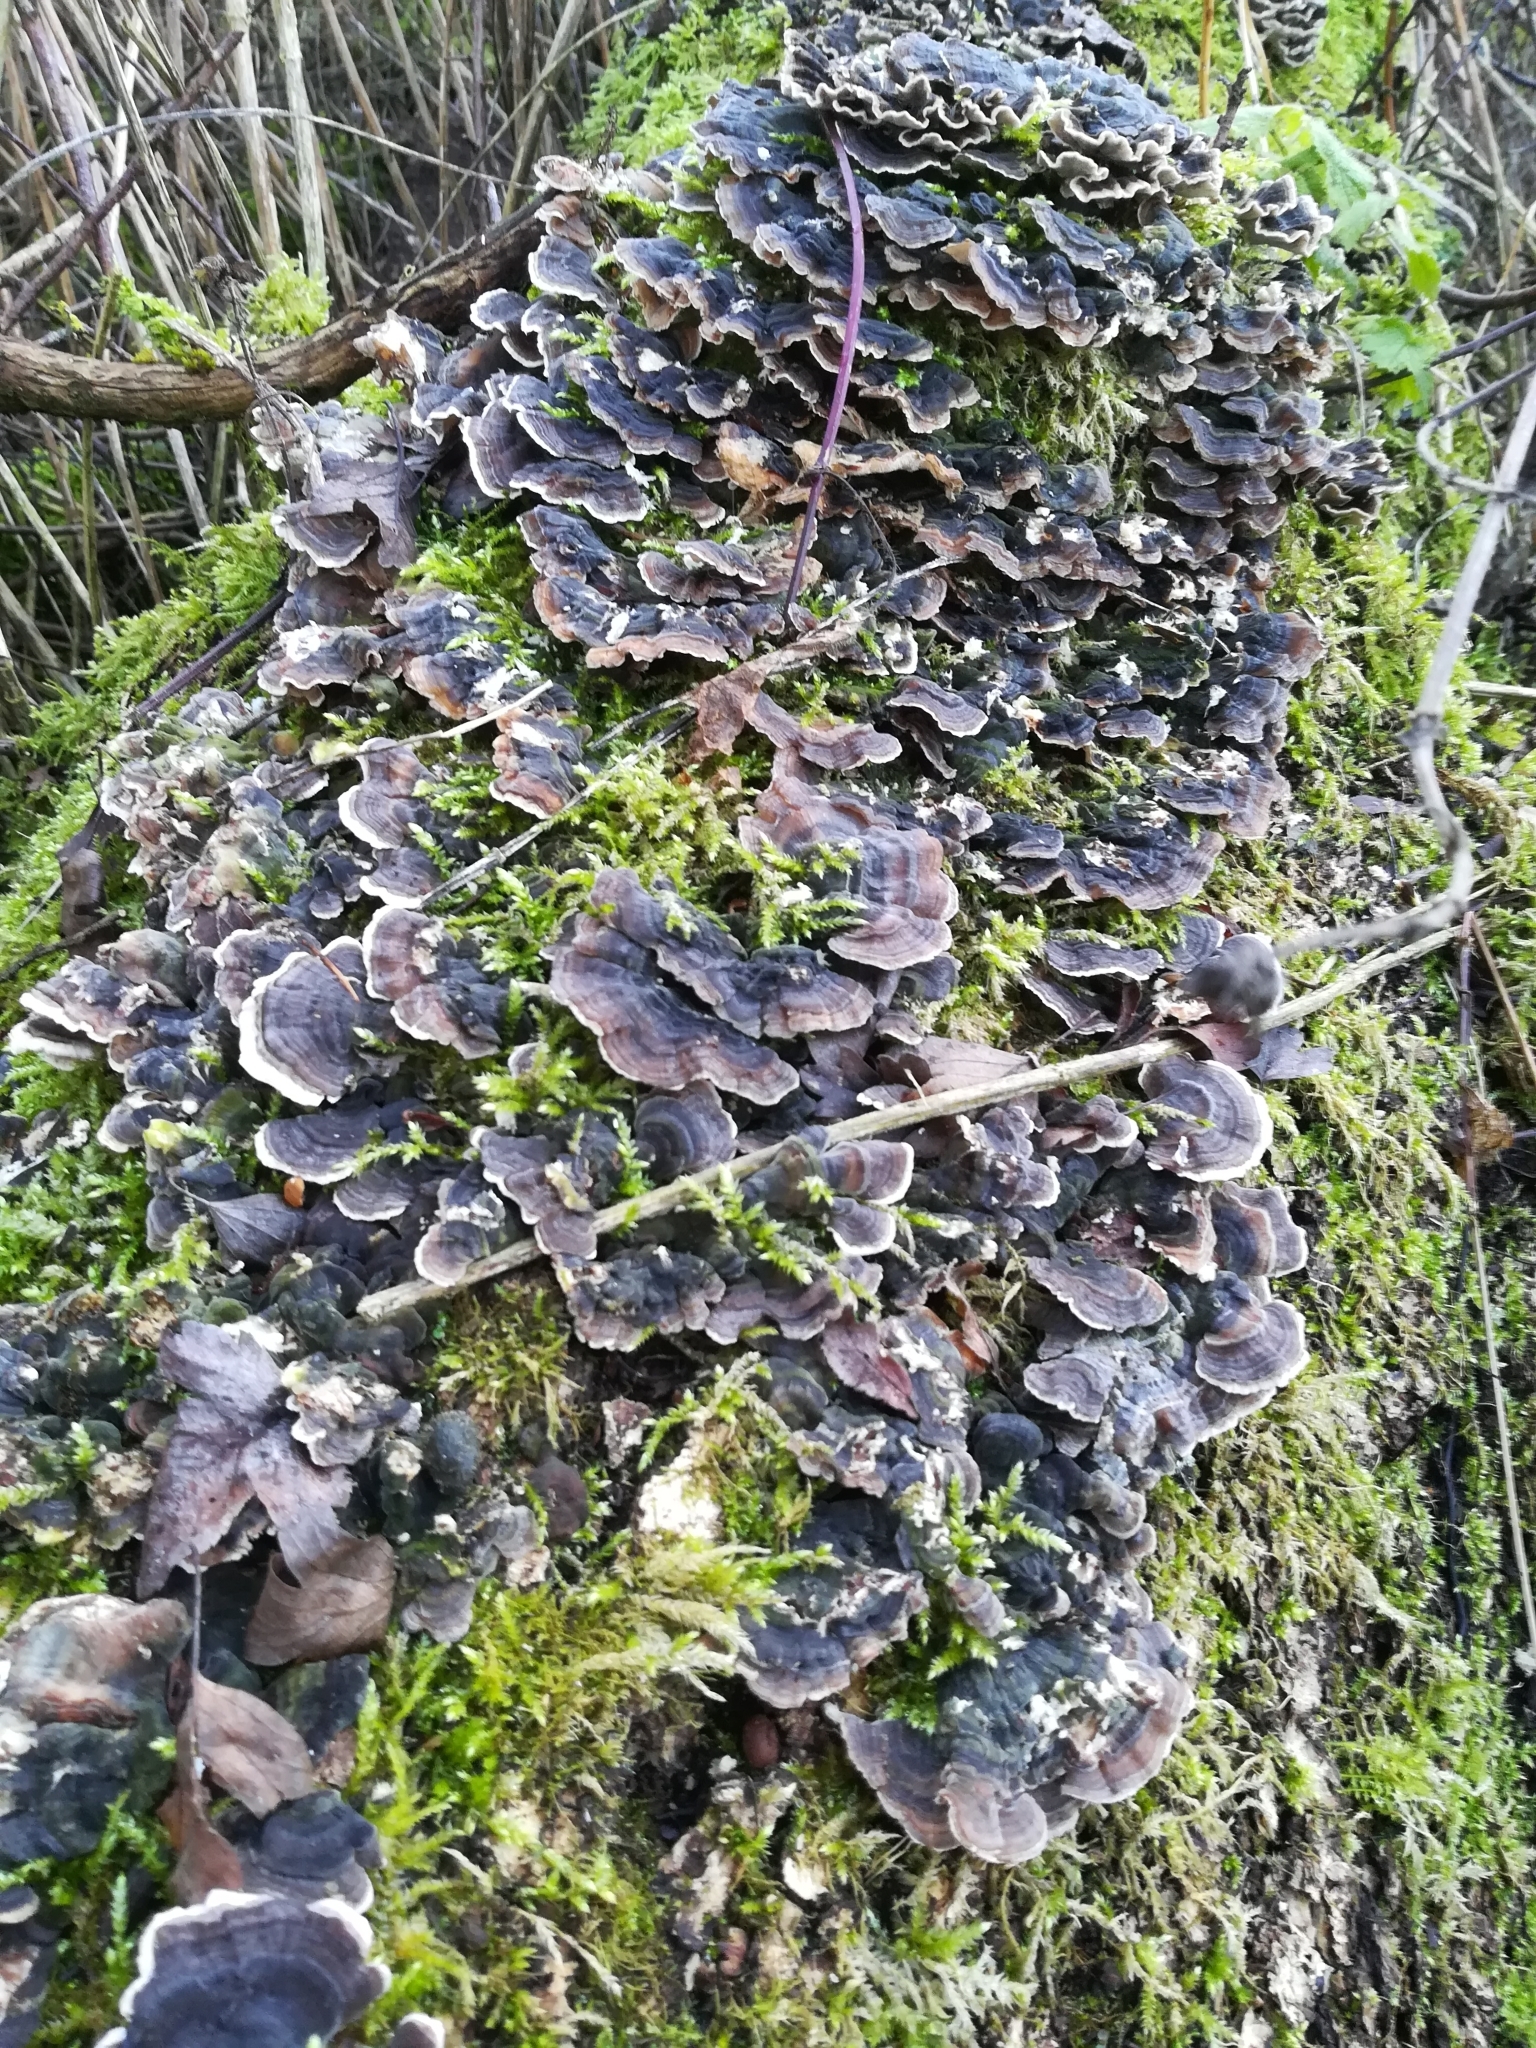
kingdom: Fungi
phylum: Basidiomycota
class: Agaricomycetes
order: Polyporales
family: Polyporaceae
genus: Trametes
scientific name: Trametes versicolor
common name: Turkeytail
